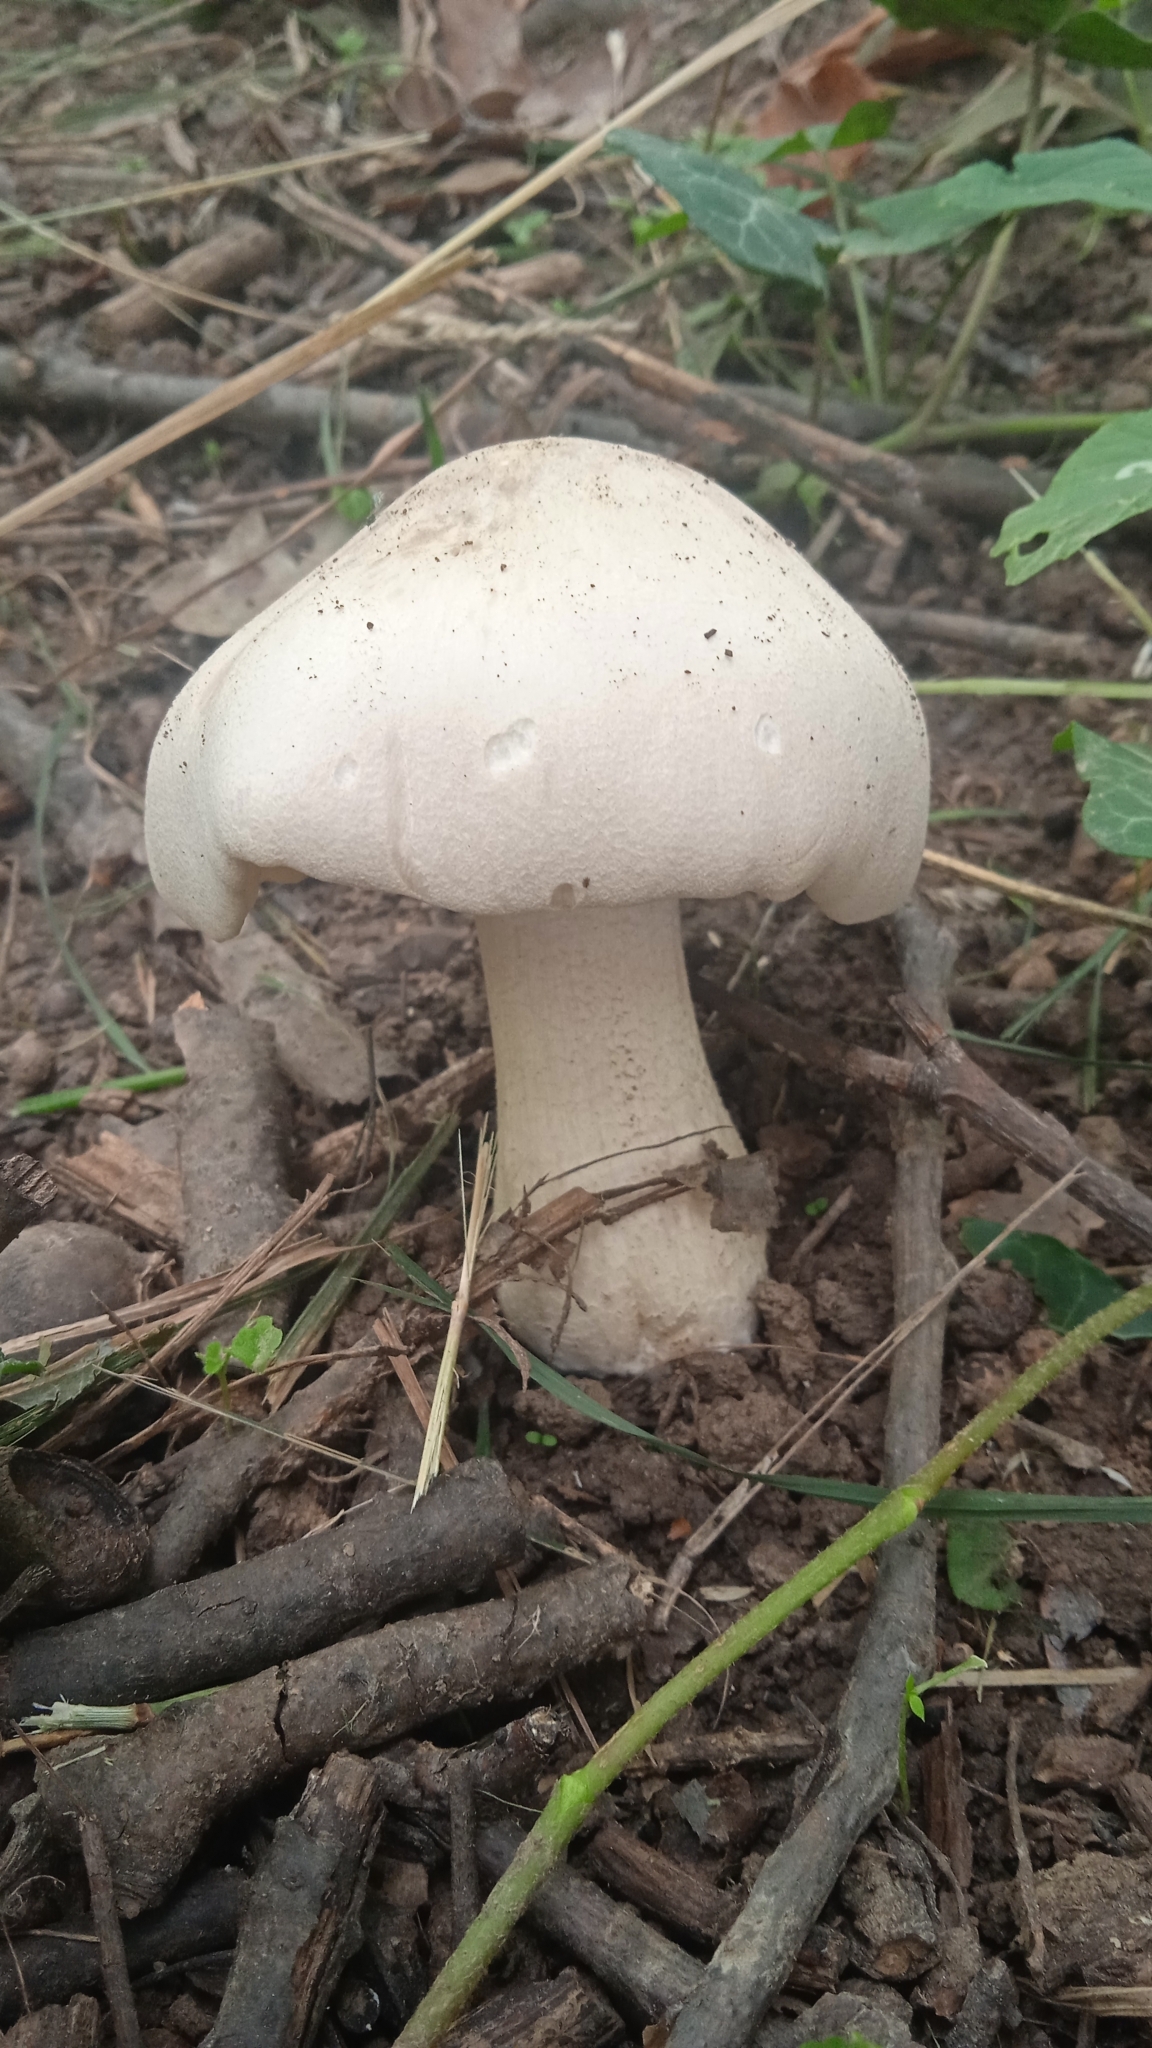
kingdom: Fungi
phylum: Basidiomycota
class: Agaricomycetes
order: Agaricales
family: Entolomataceae
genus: Entoloma
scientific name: Entoloma sinuatum
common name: Livid pinkgill
